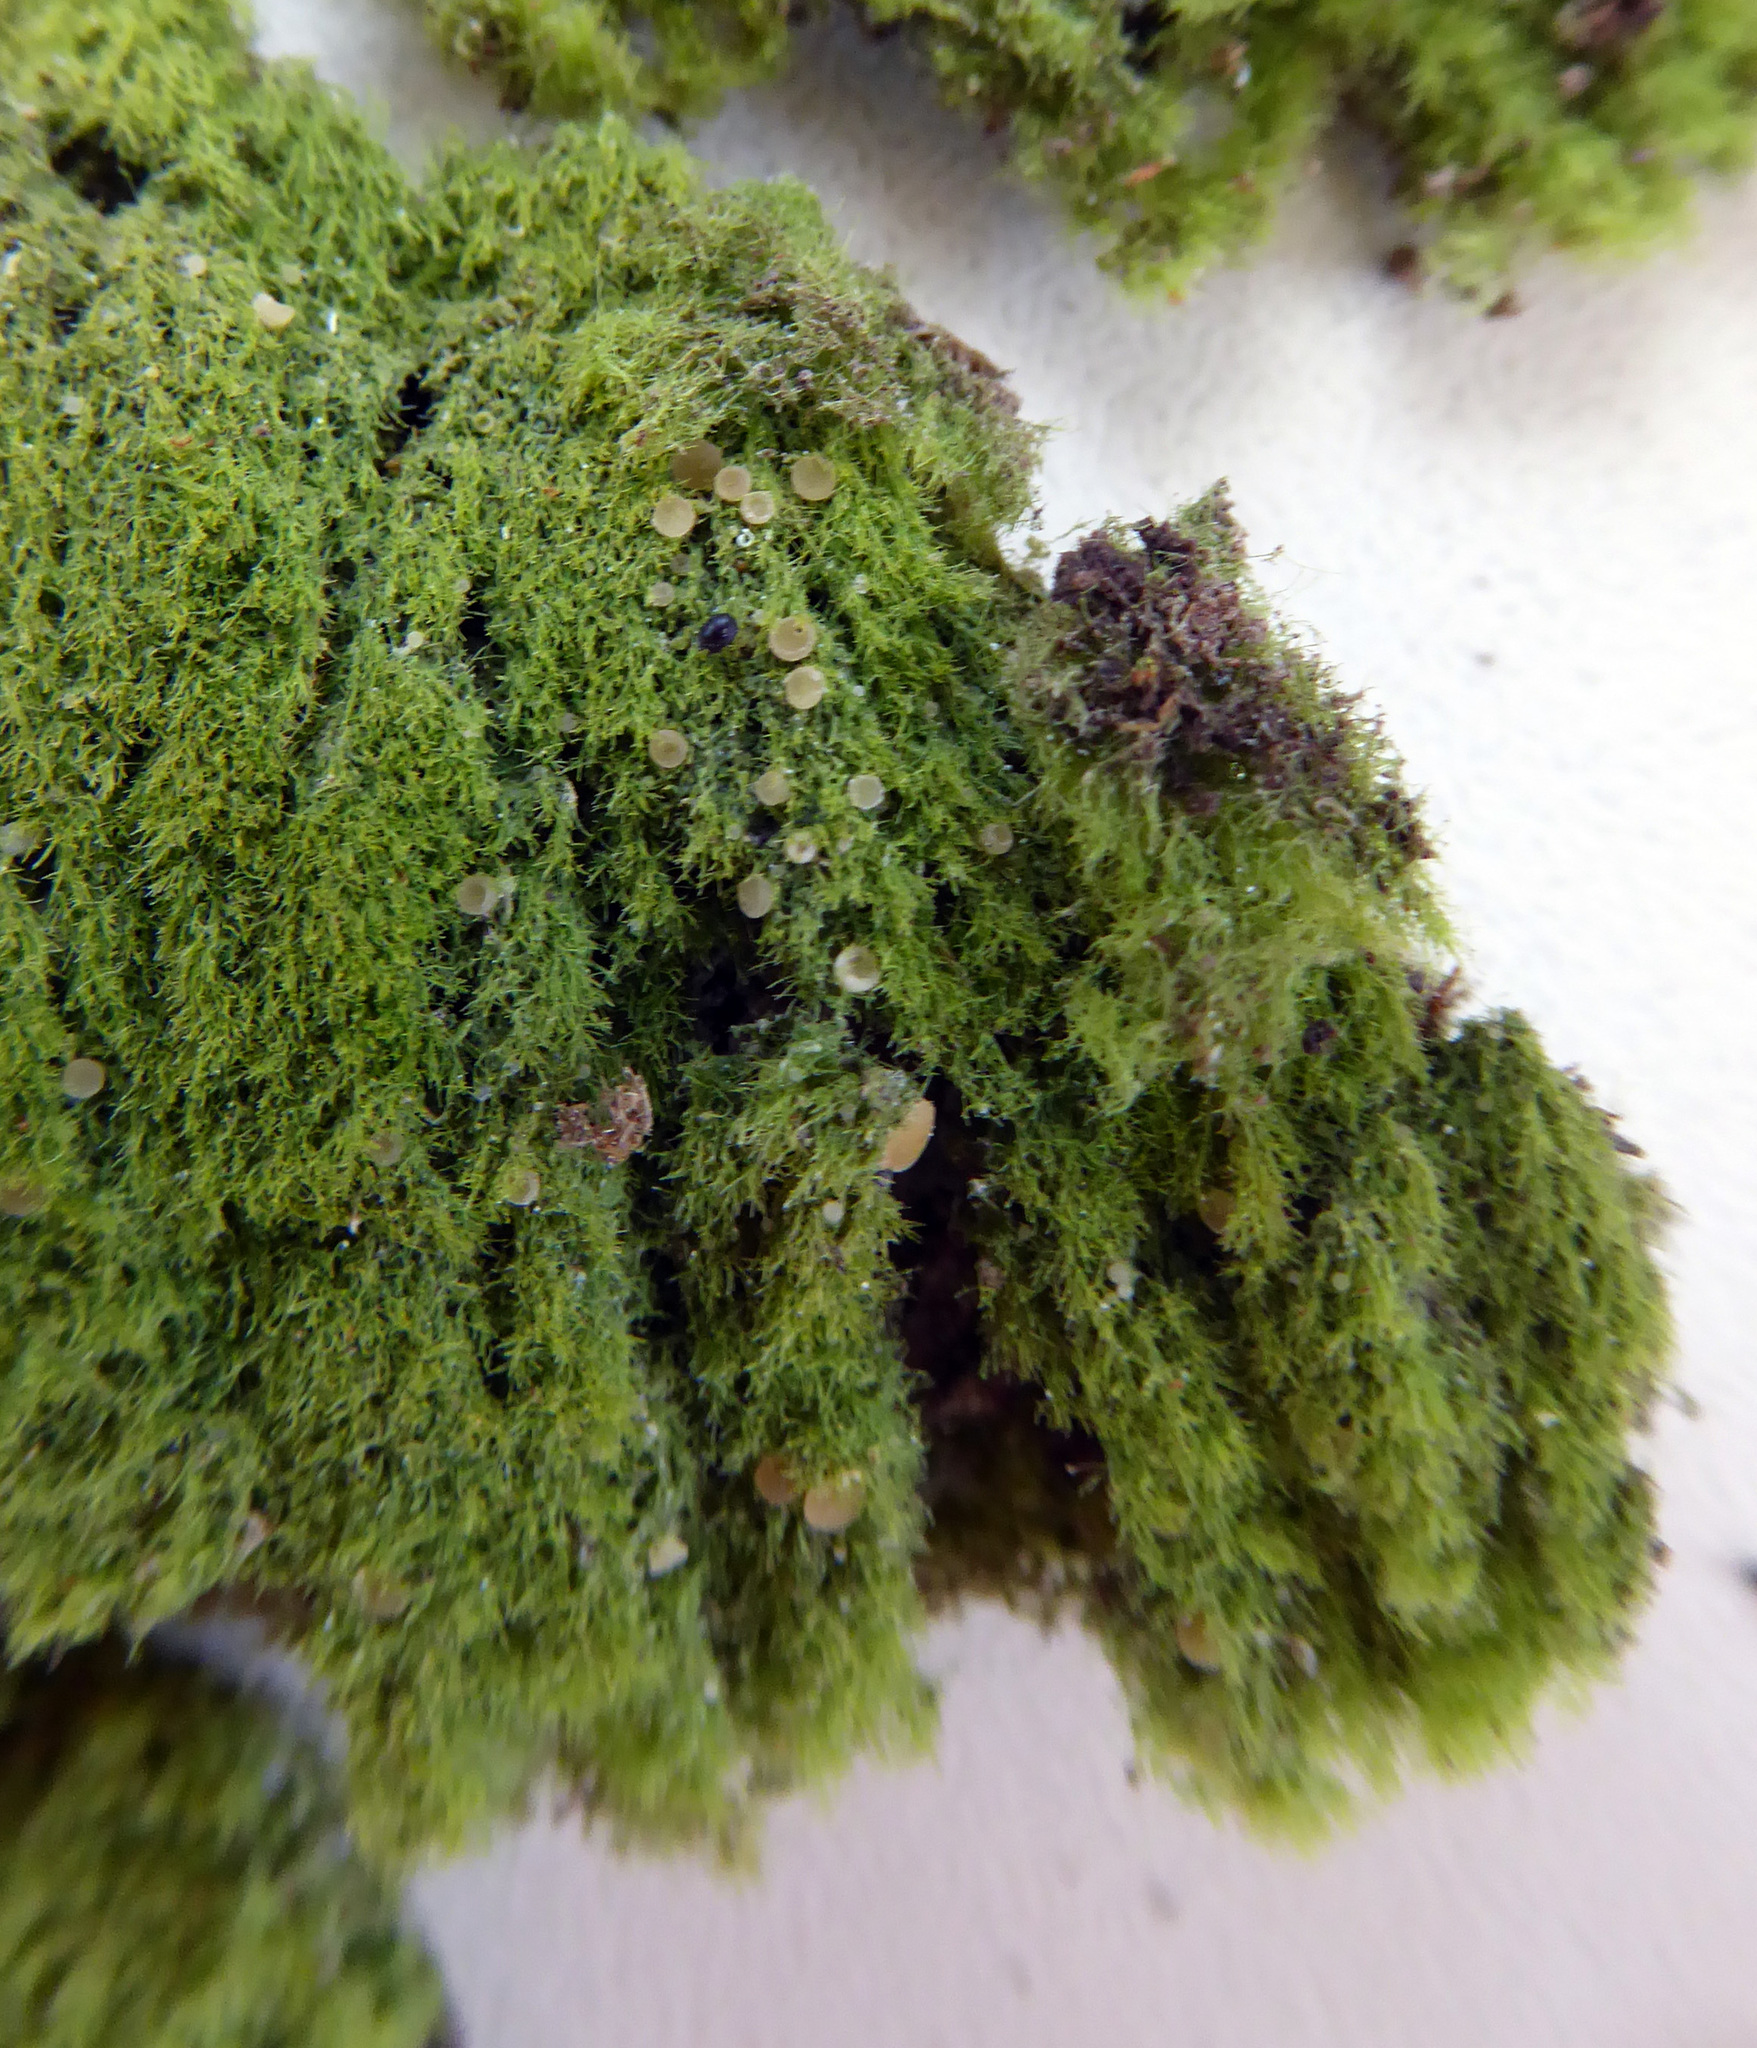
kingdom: Fungi
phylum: Ascomycota
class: Lecanoromycetes
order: Ostropales
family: Coenogoniaceae
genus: Coenogonium
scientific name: Coenogonium implexum
